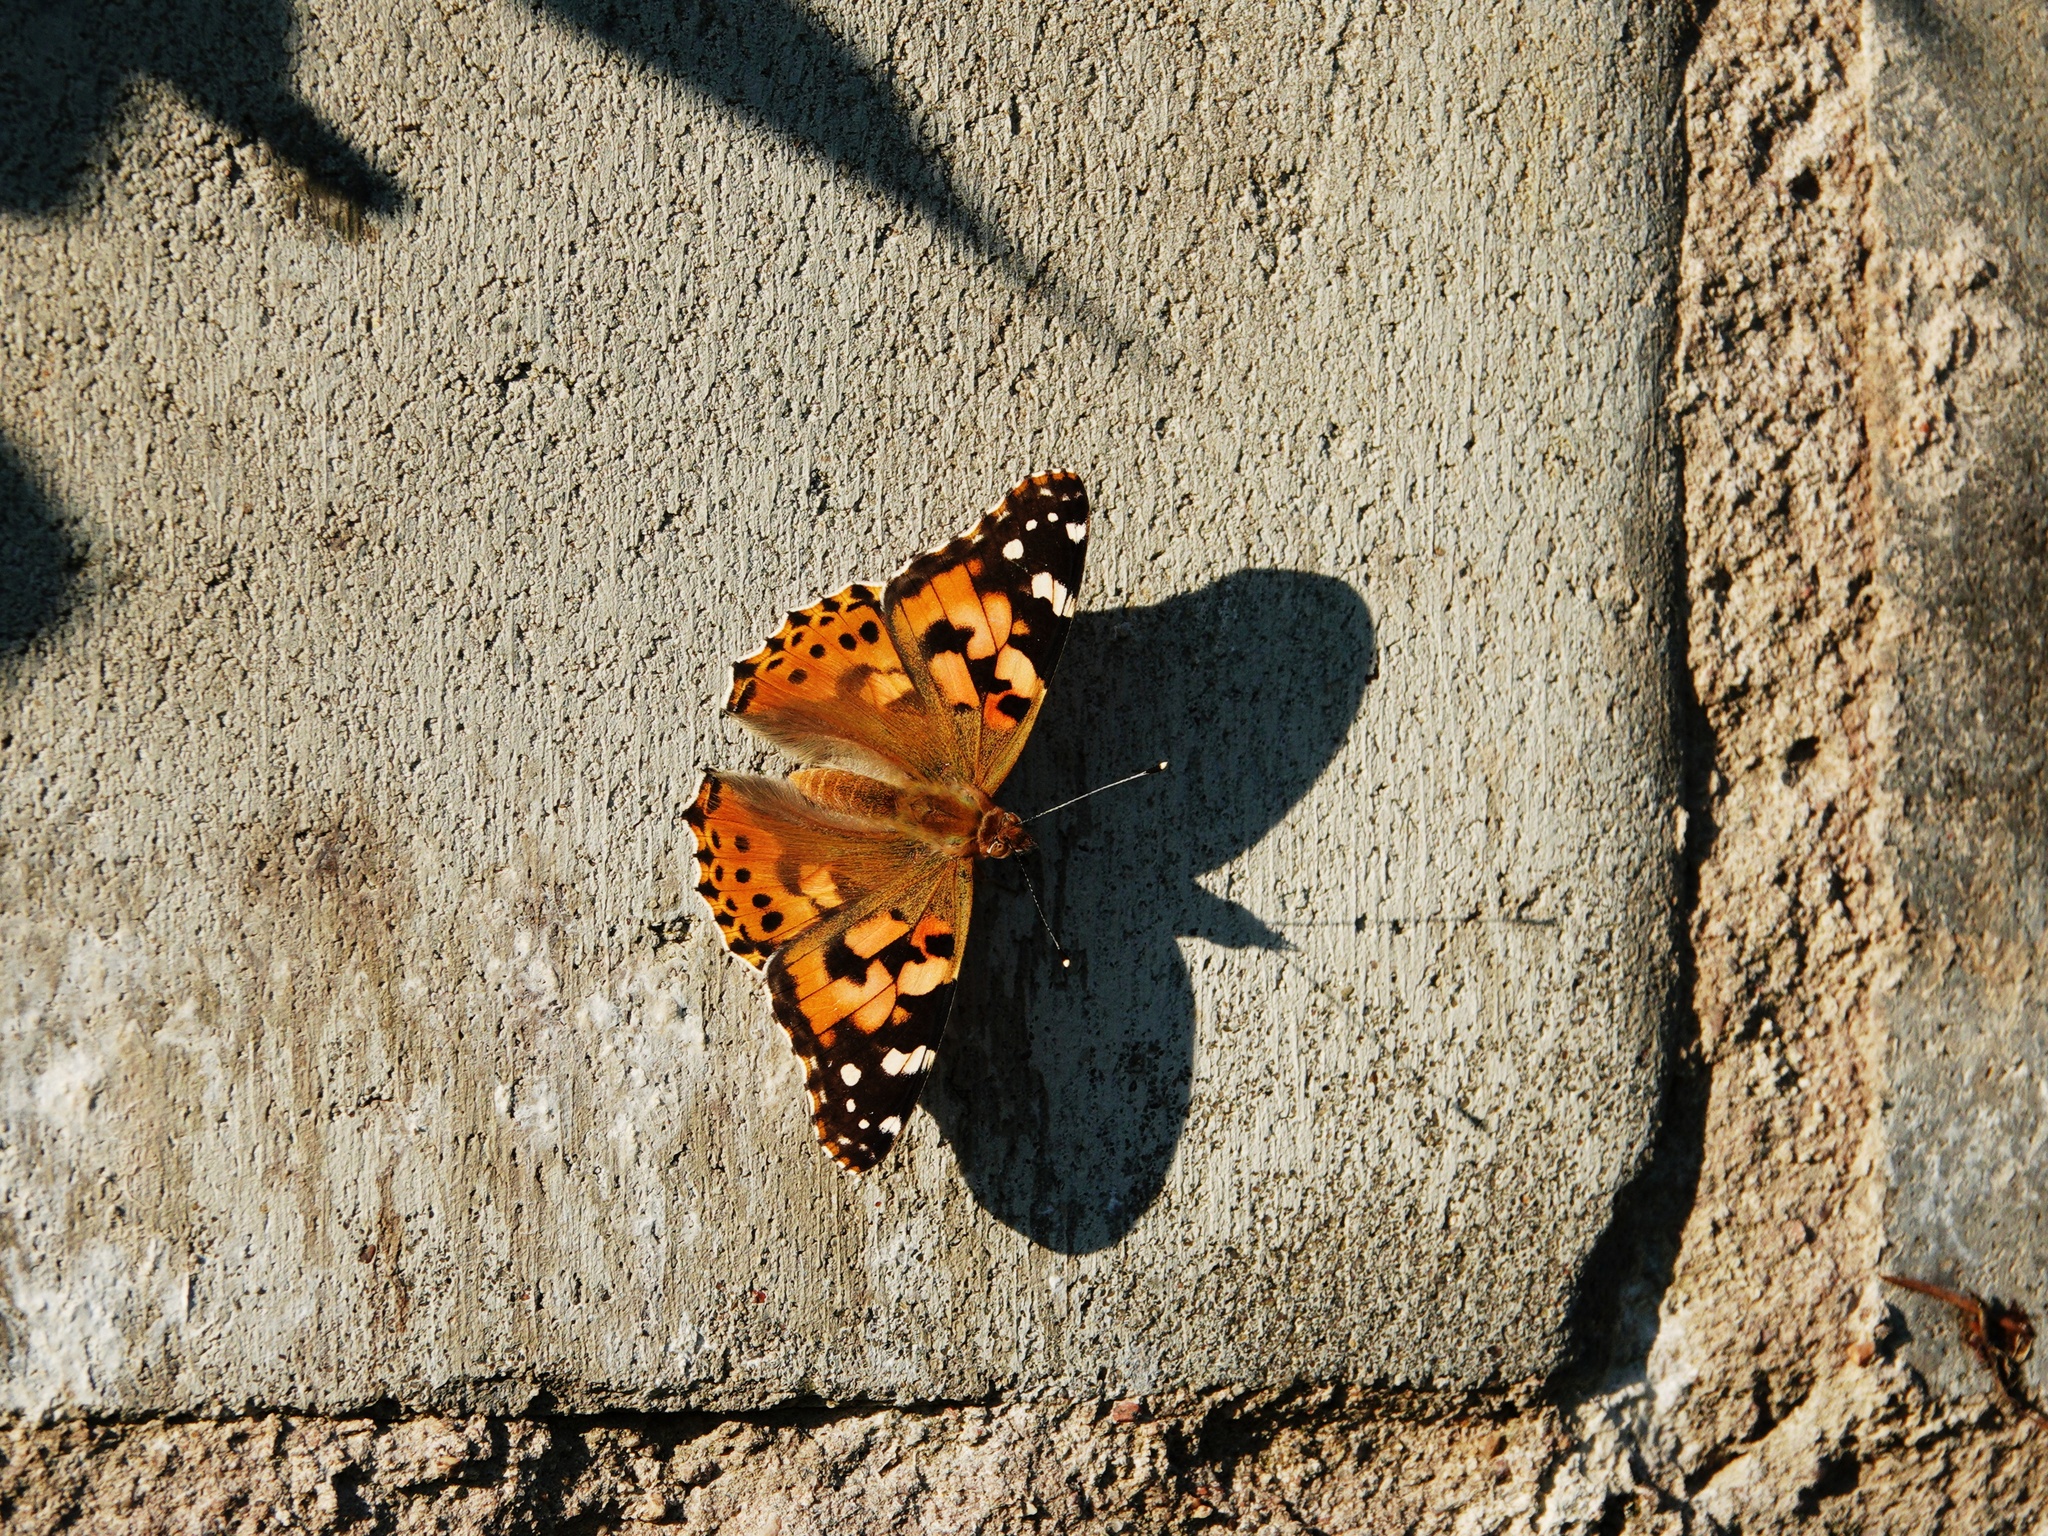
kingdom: Animalia
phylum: Arthropoda
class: Insecta
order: Lepidoptera
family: Nymphalidae
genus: Vanessa
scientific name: Vanessa cardui
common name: Painted lady
